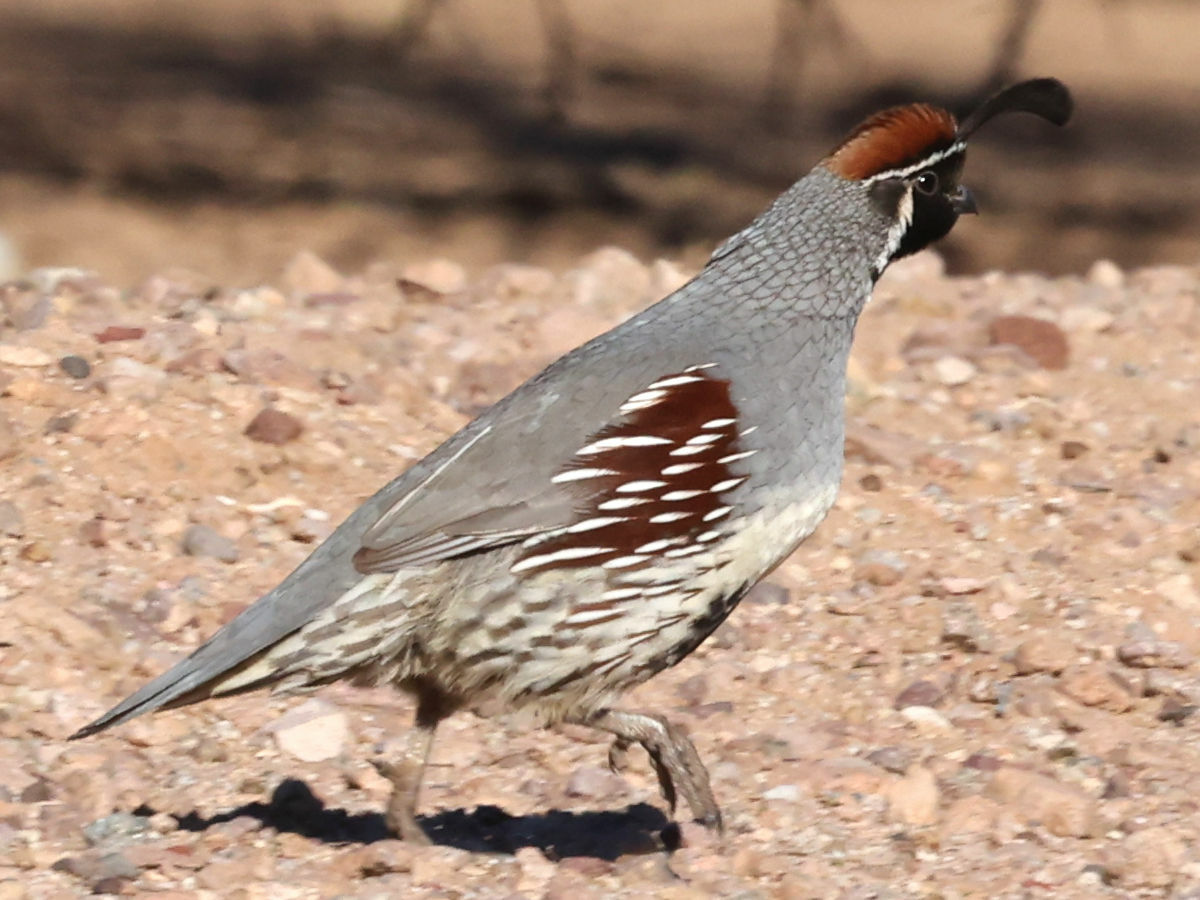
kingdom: Animalia
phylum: Chordata
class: Aves
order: Galliformes
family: Odontophoridae
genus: Callipepla
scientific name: Callipepla gambelii
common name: Gambel's quail
